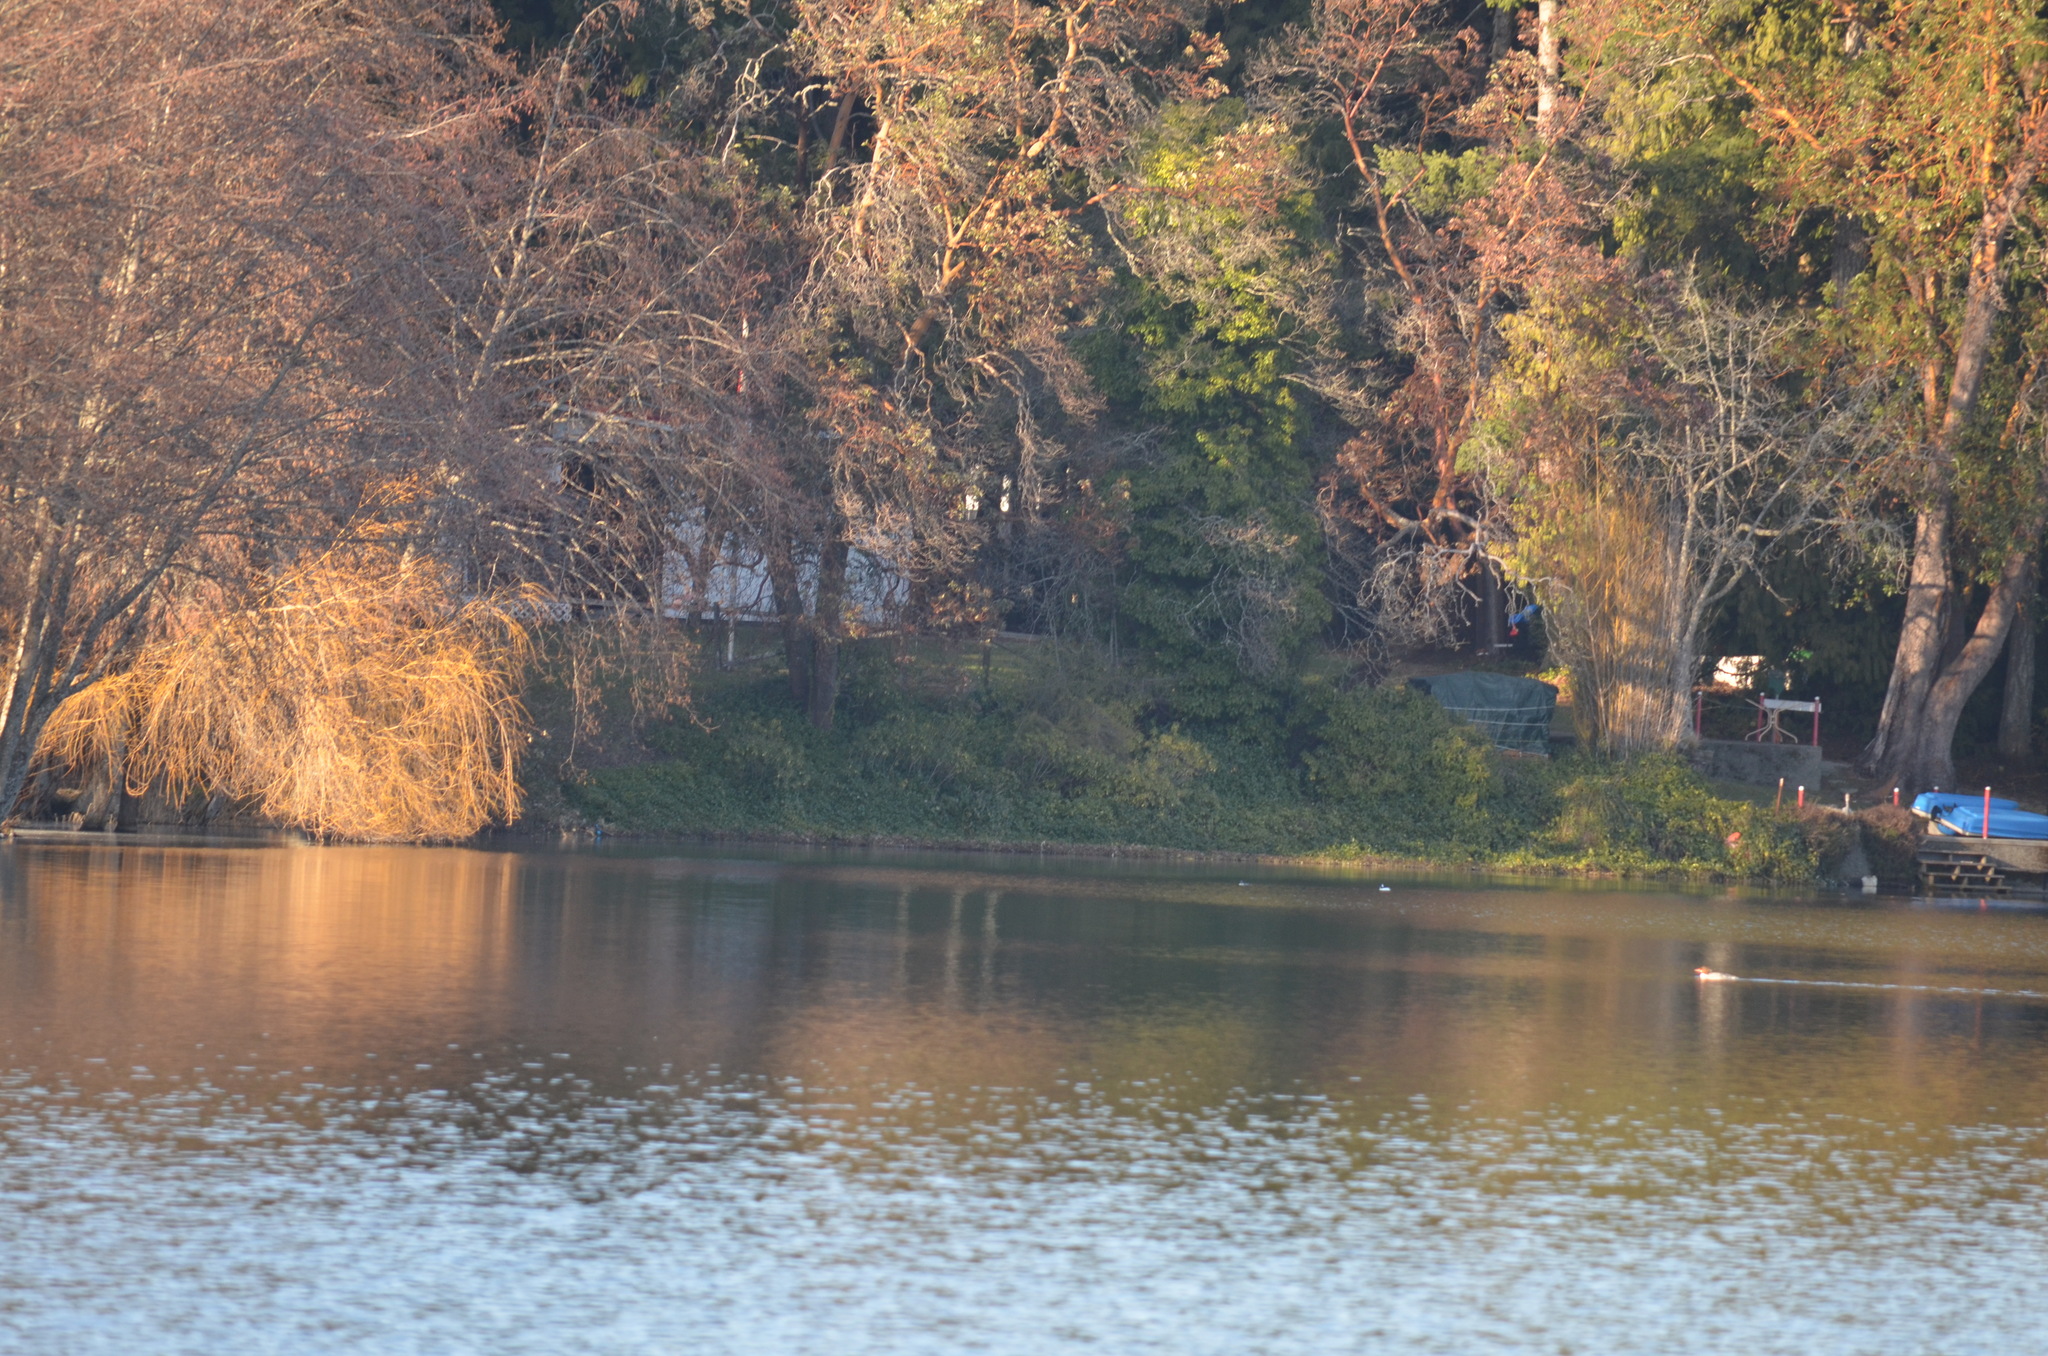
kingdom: Animalia
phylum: Chordata
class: Aves
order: Anseriformes
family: Anatidae
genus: Bucephala
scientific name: Bucephala albeola
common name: Bufflehead
